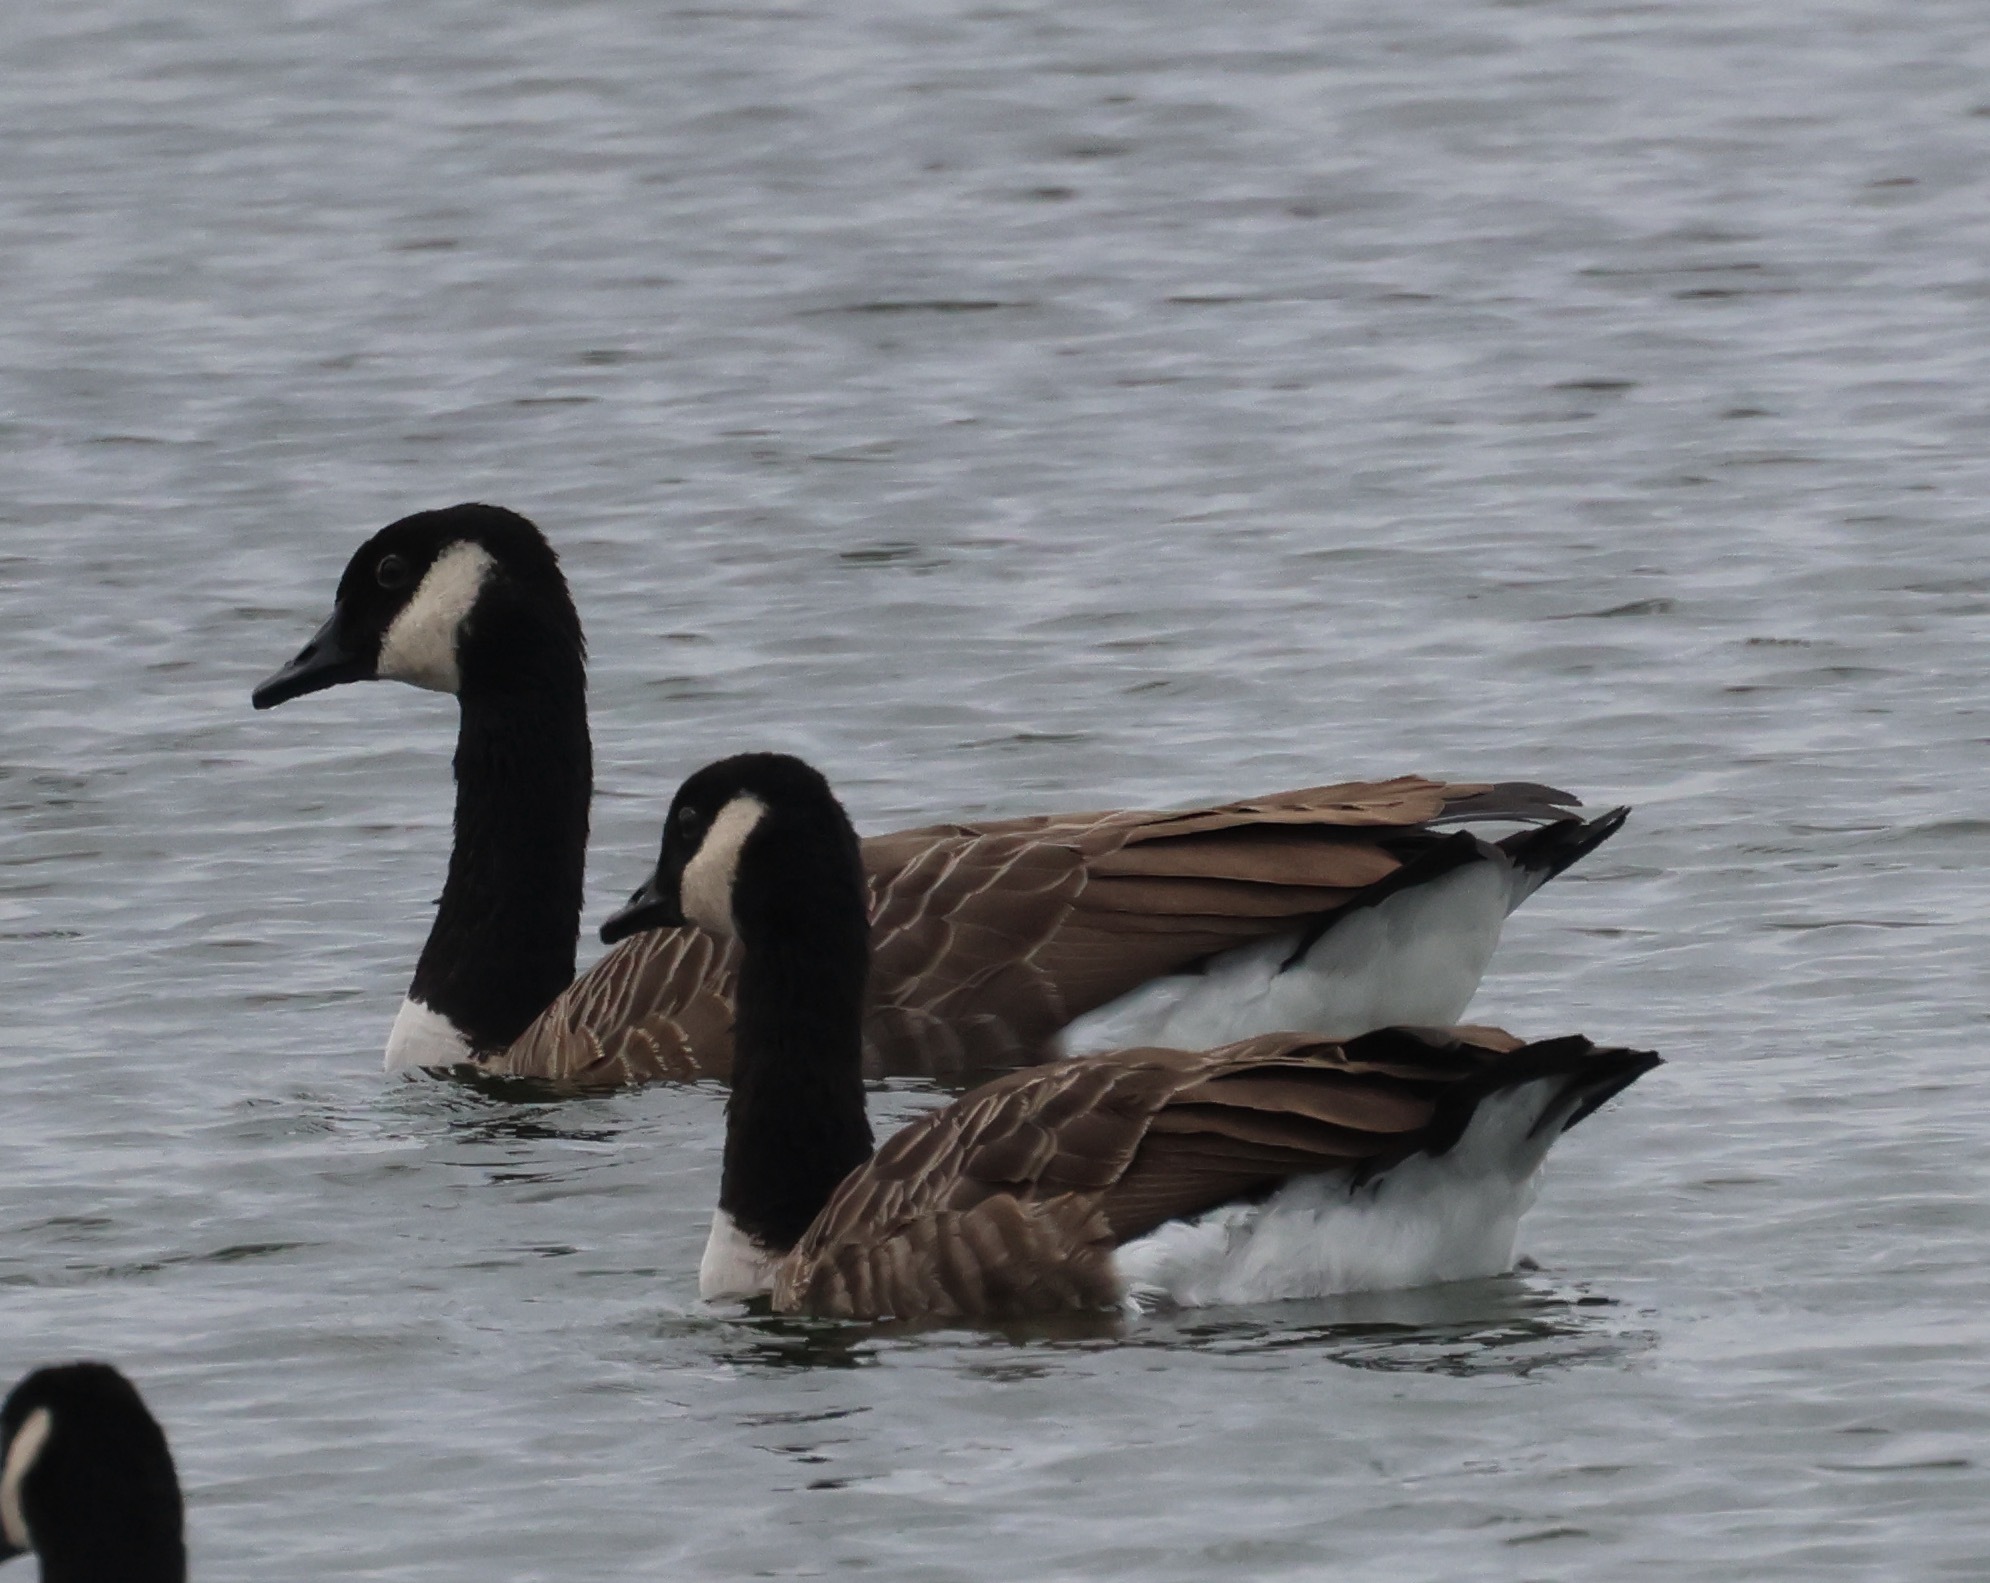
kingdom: Animalia
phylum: Chordata
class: Aves
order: Anseriformes
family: Anatidae
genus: Branta
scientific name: Branta canadensis
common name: Canada goose
